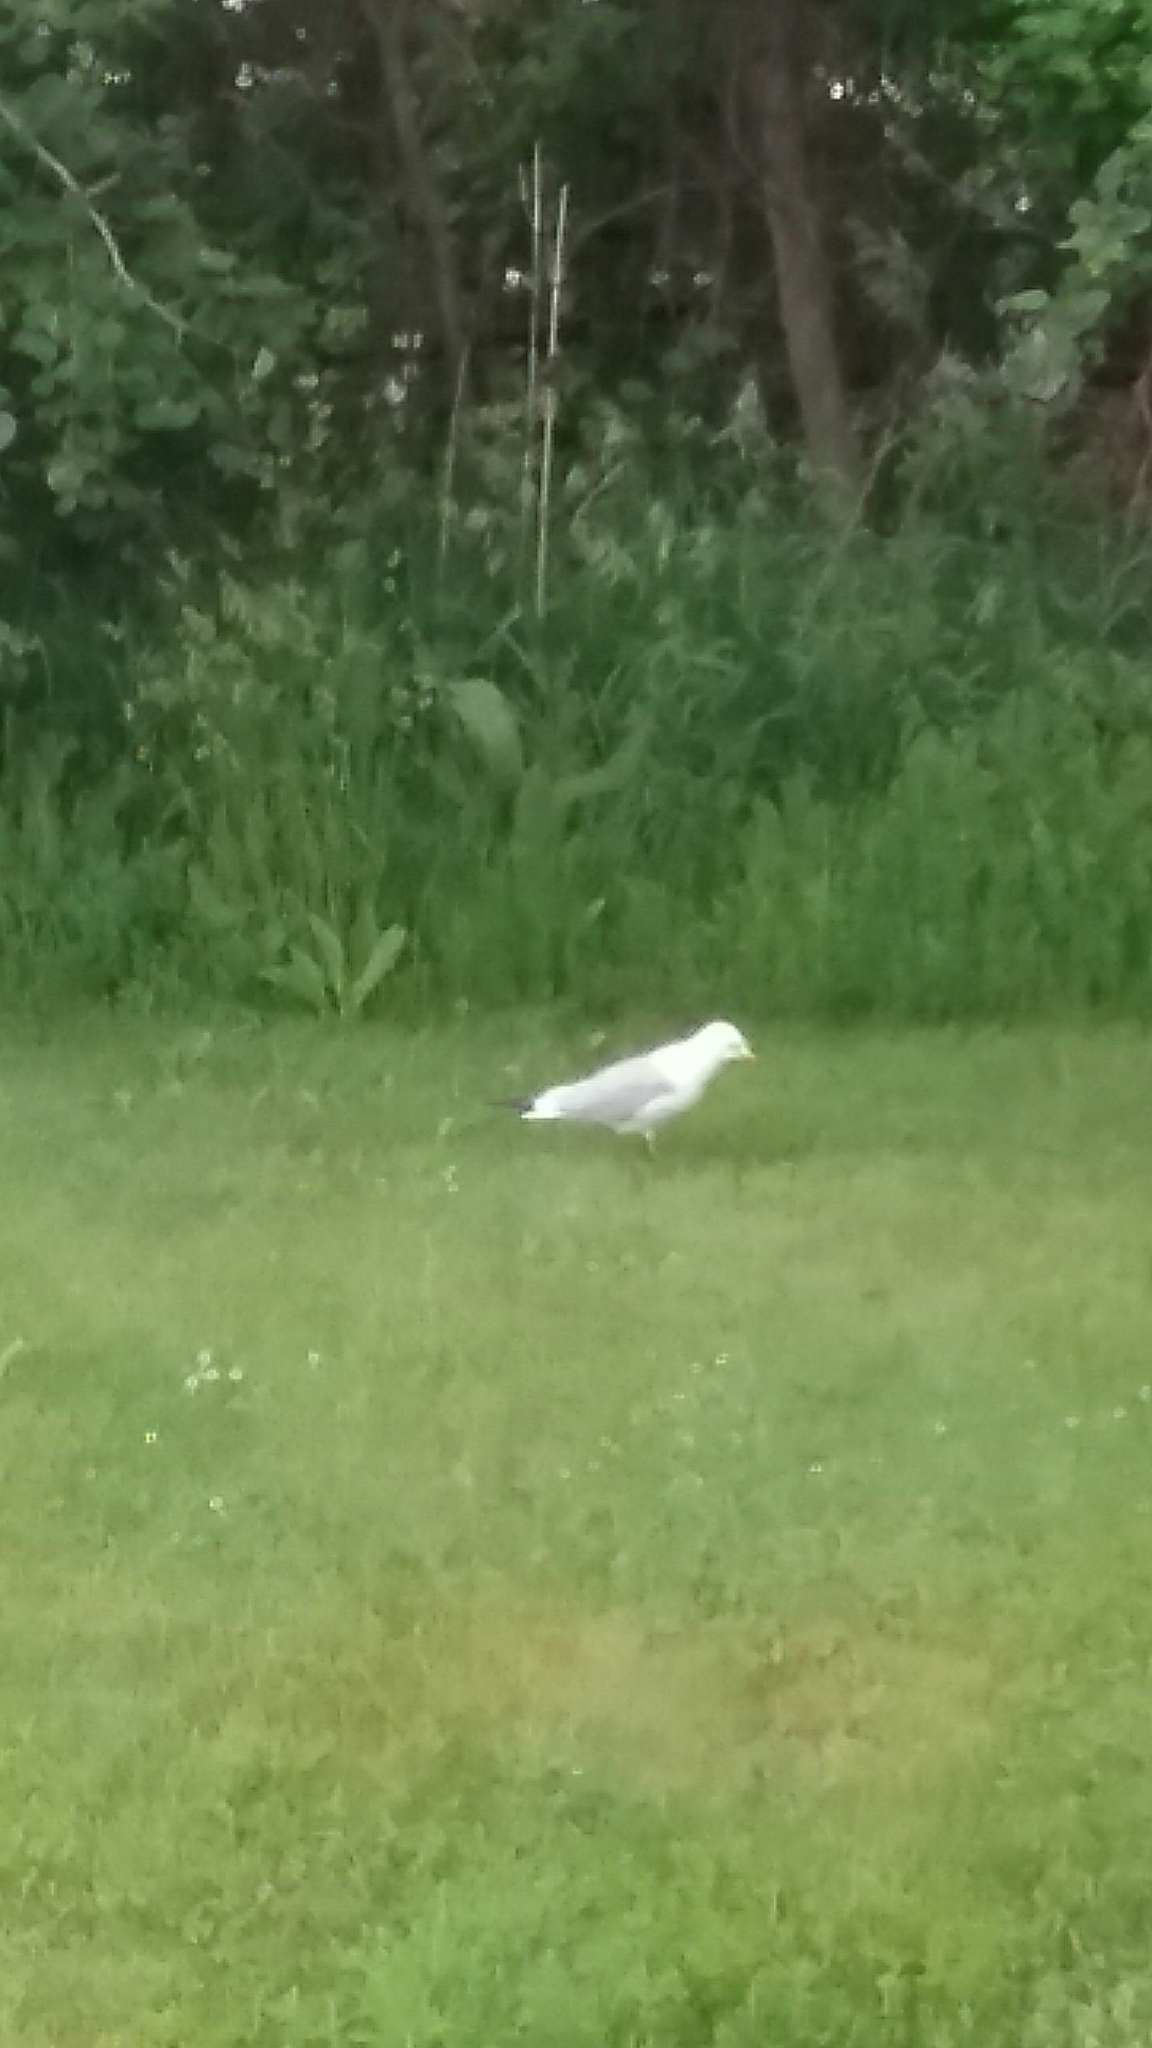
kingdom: Animalia
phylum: Chordata
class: Aves
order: Charadriiformes
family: Laridae
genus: Larus
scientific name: Larus delawarensis
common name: Ring-billed gull
